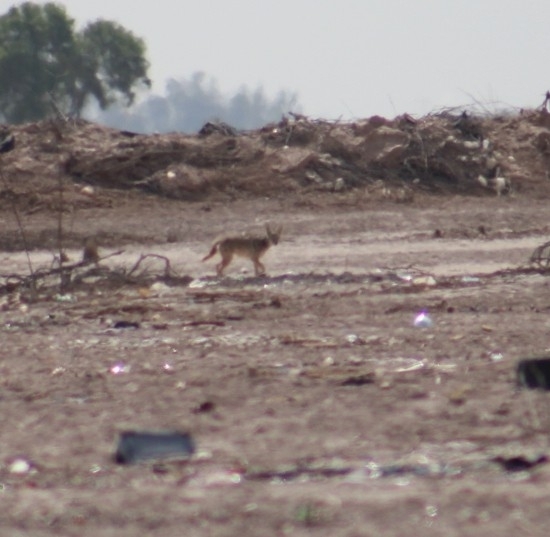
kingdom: Animalia
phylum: Chordata
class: Mammalia
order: Carnivora
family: Canidae
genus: Canis
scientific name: Canis latrans
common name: Coyote
